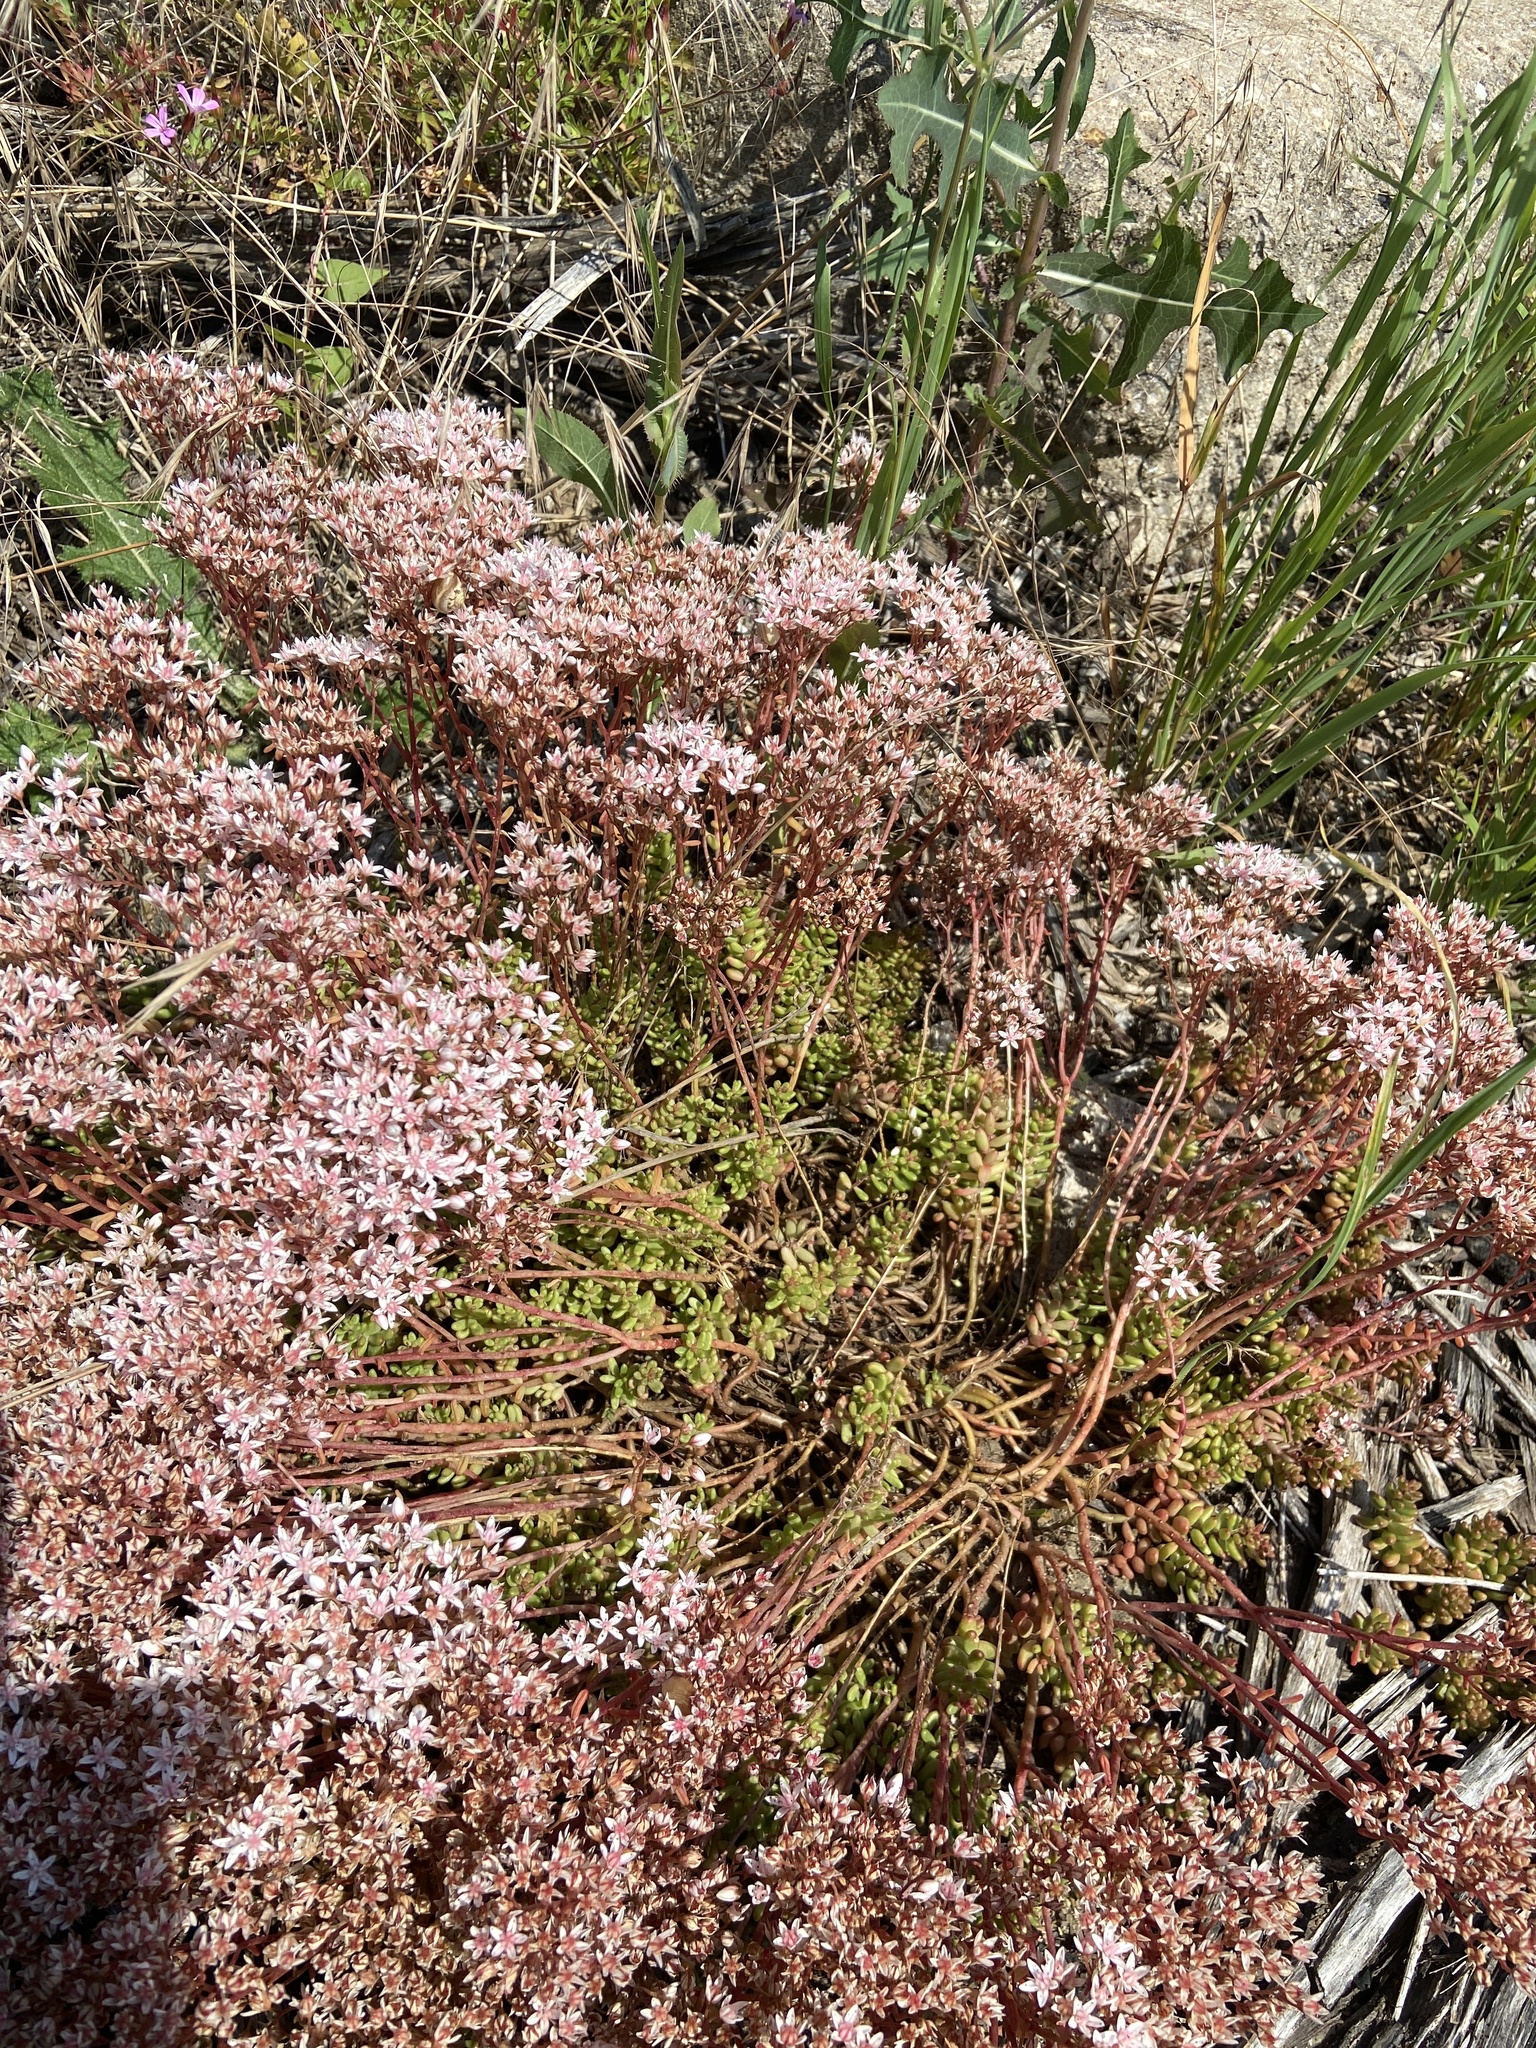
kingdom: Plantae
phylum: Tracheophyta
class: Magnoliopsida
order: Saxifragales
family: Crassulaceae
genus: Sedum
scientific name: Sedum album
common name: White stonecrop
